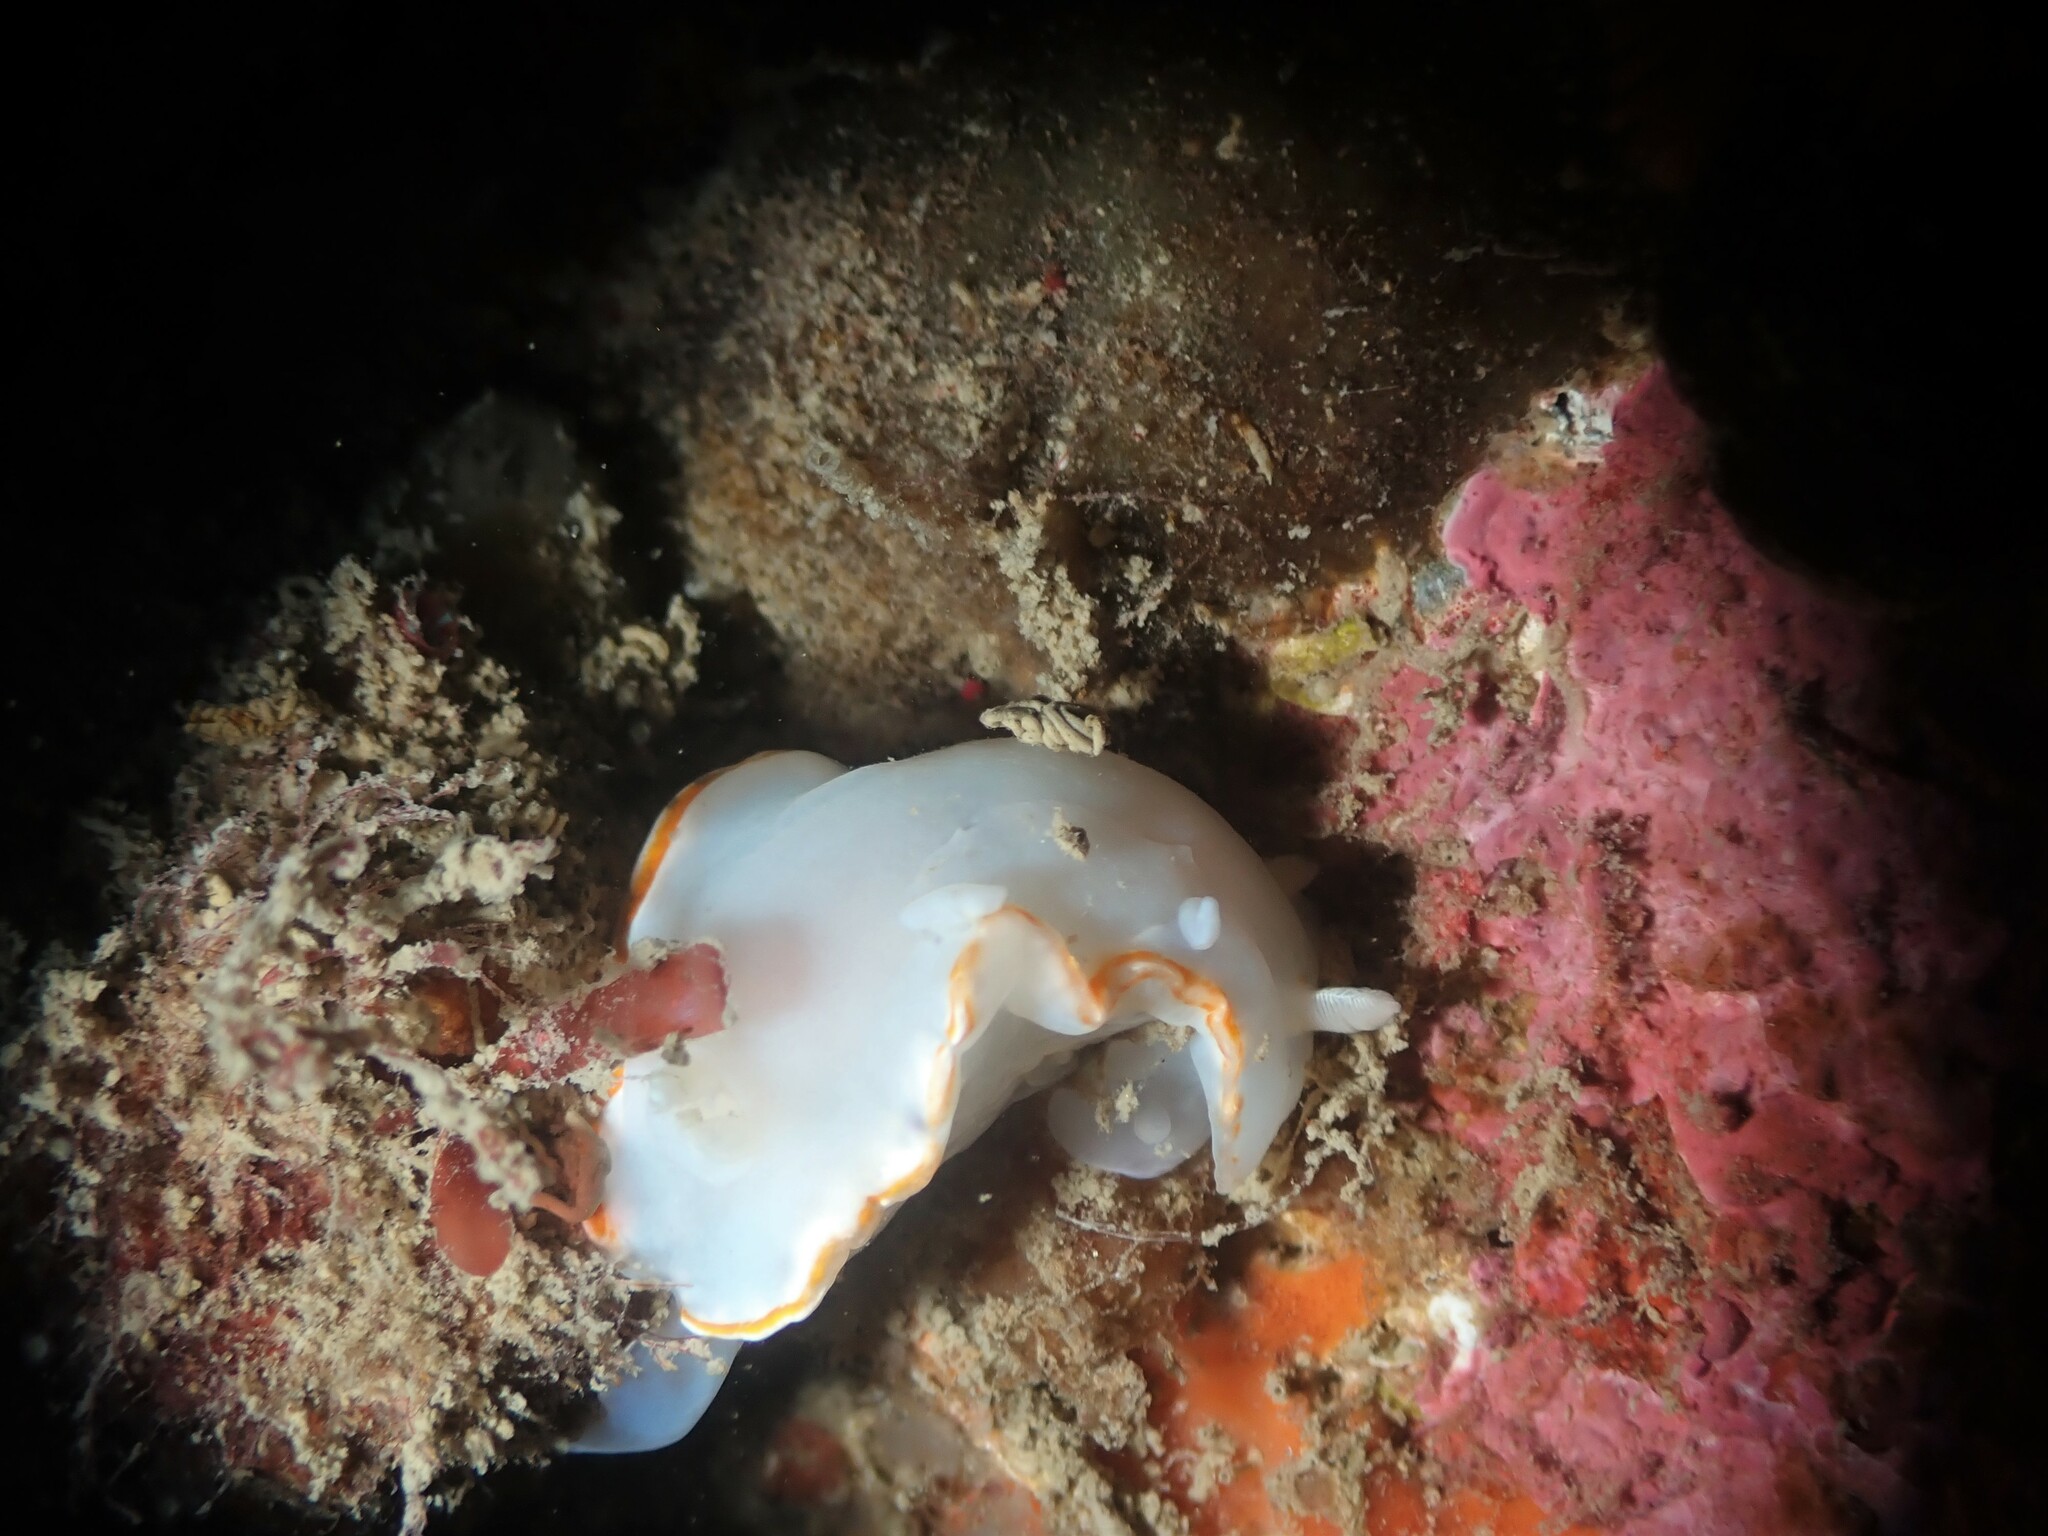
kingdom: Animalia
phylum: Mollusca
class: Gastropoda
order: Nudibranchia
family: Chromodorididae
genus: Goniobranchus
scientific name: Goniobranchus aureomarginatus
